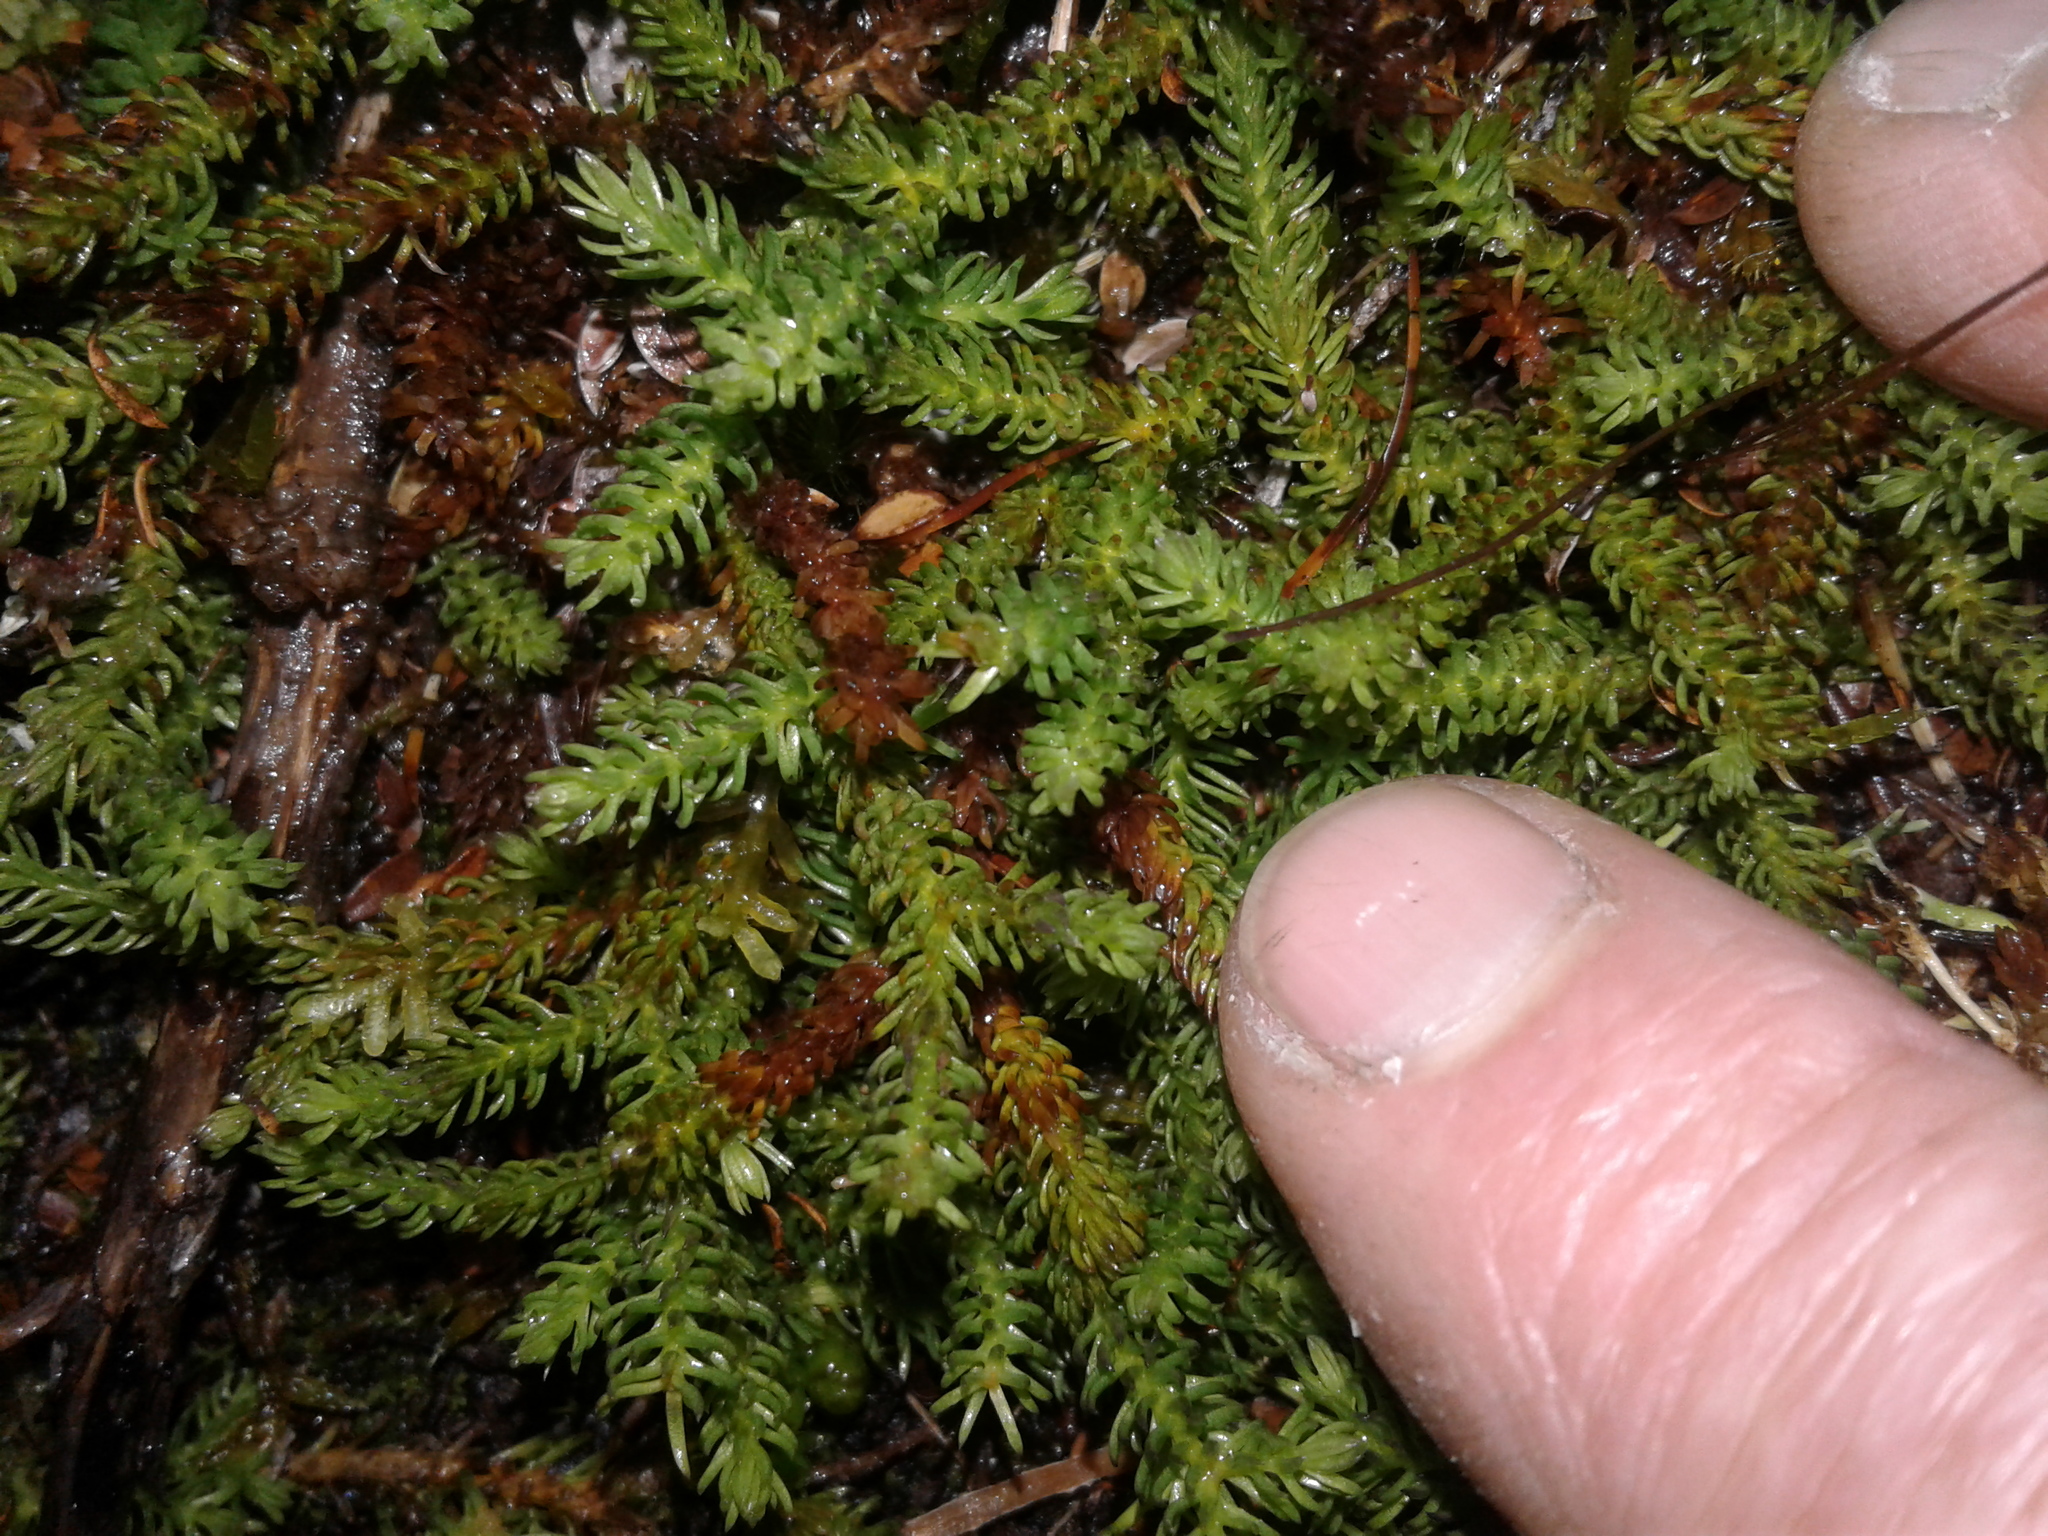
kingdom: Plantae
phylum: Tracheophyta
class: Lycopodiopsida
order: Lycopodiales
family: Lycopodiaceae
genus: Lateristachys
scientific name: Lateristachys diffusa
